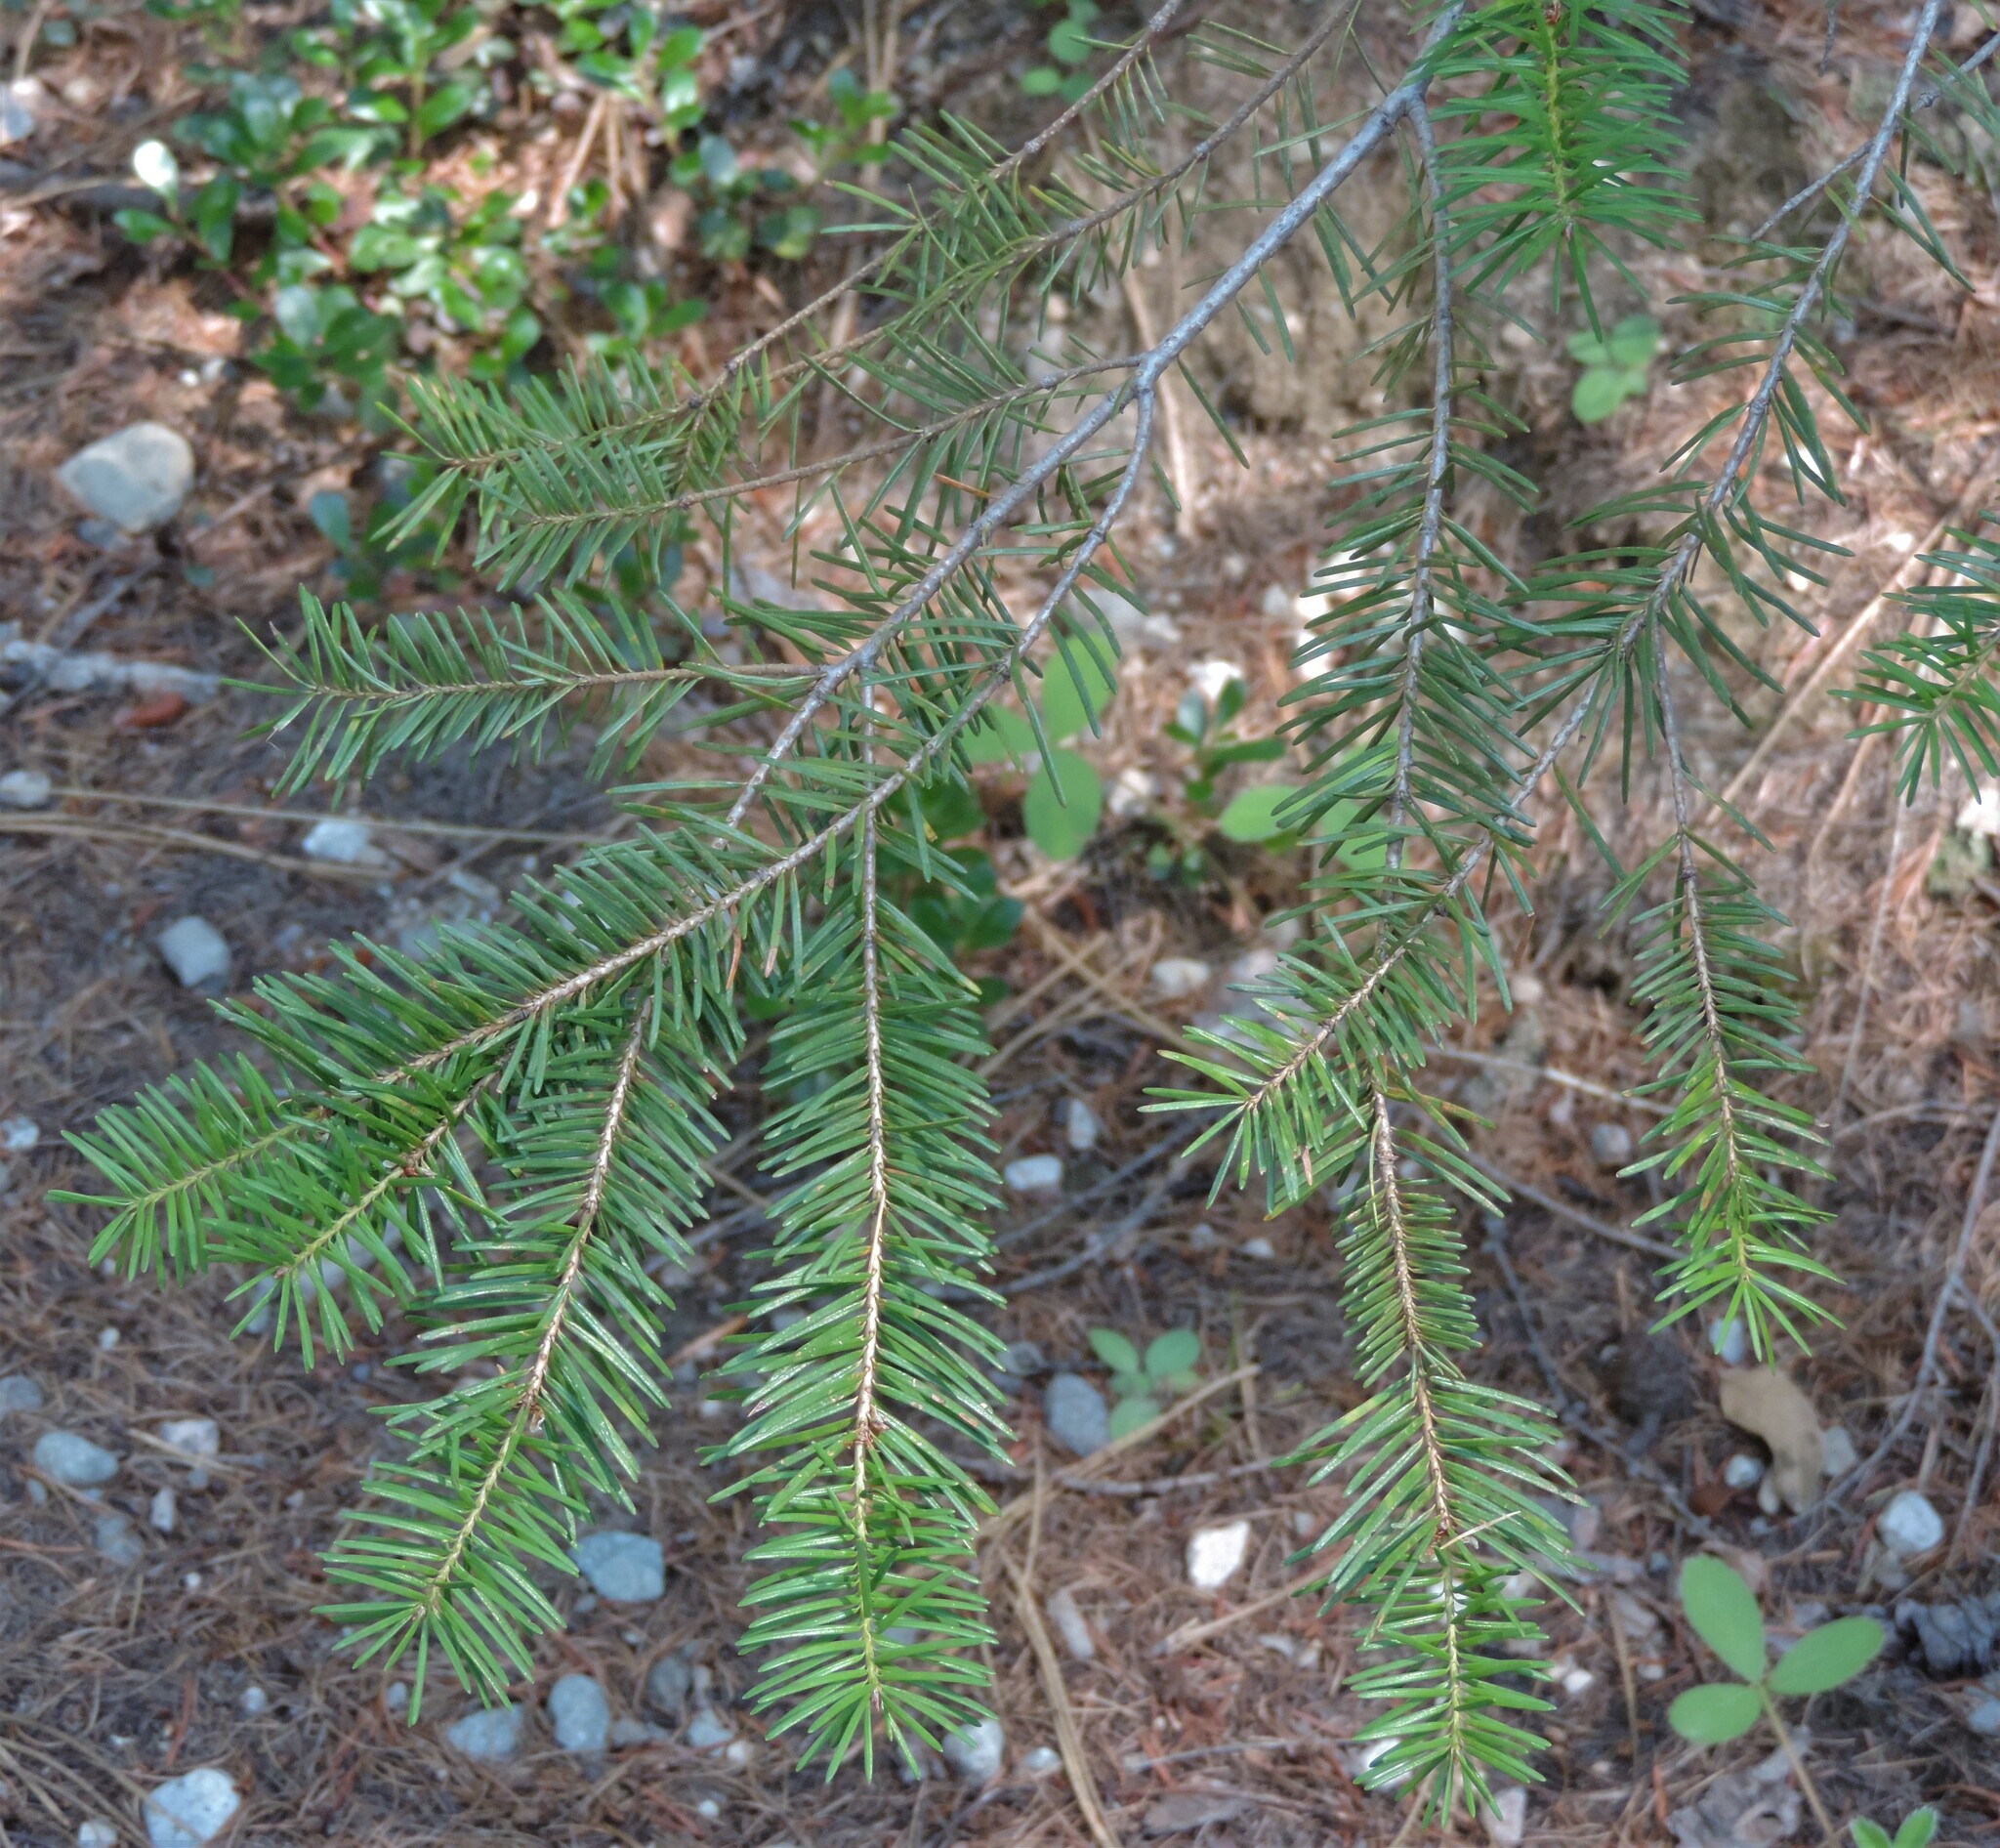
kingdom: Plantae
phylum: Tracheophyta
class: Pinopsida
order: Pinales
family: Pinaceae
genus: Pseudotsuga
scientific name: Pseudotsuga menziesii
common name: Douglas fir
